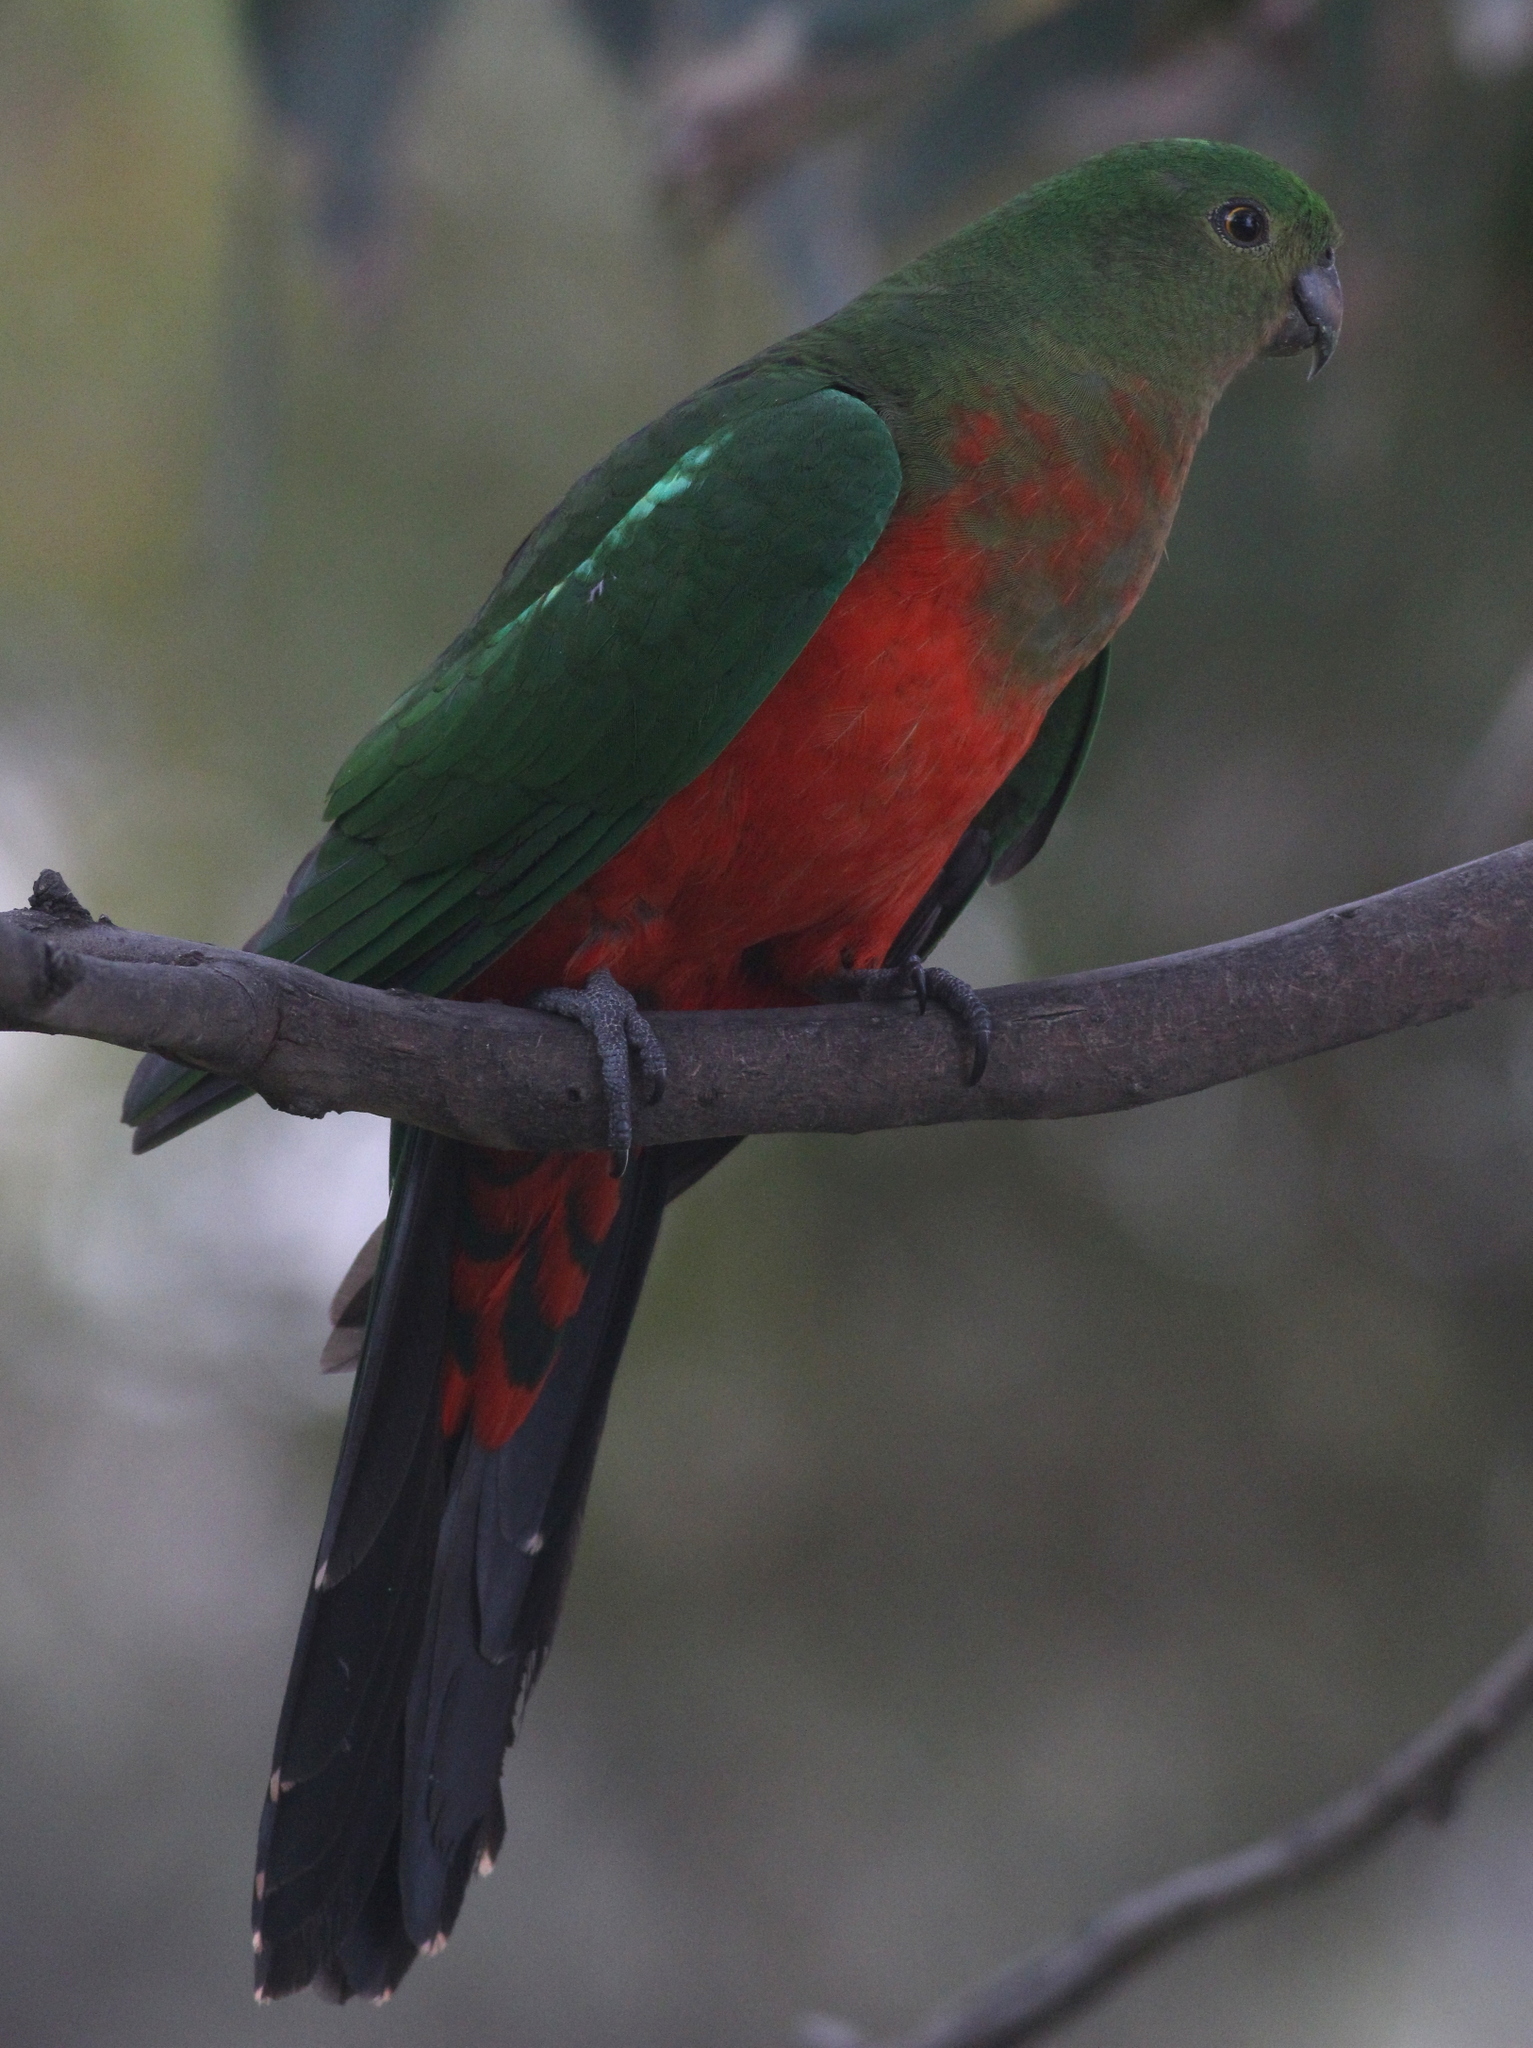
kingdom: Animalia
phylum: Chordata
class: Aves
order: Psittaciformes
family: Psittacidae
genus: Alisterus
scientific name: Alisterus scapularis
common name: Australian king parrot
